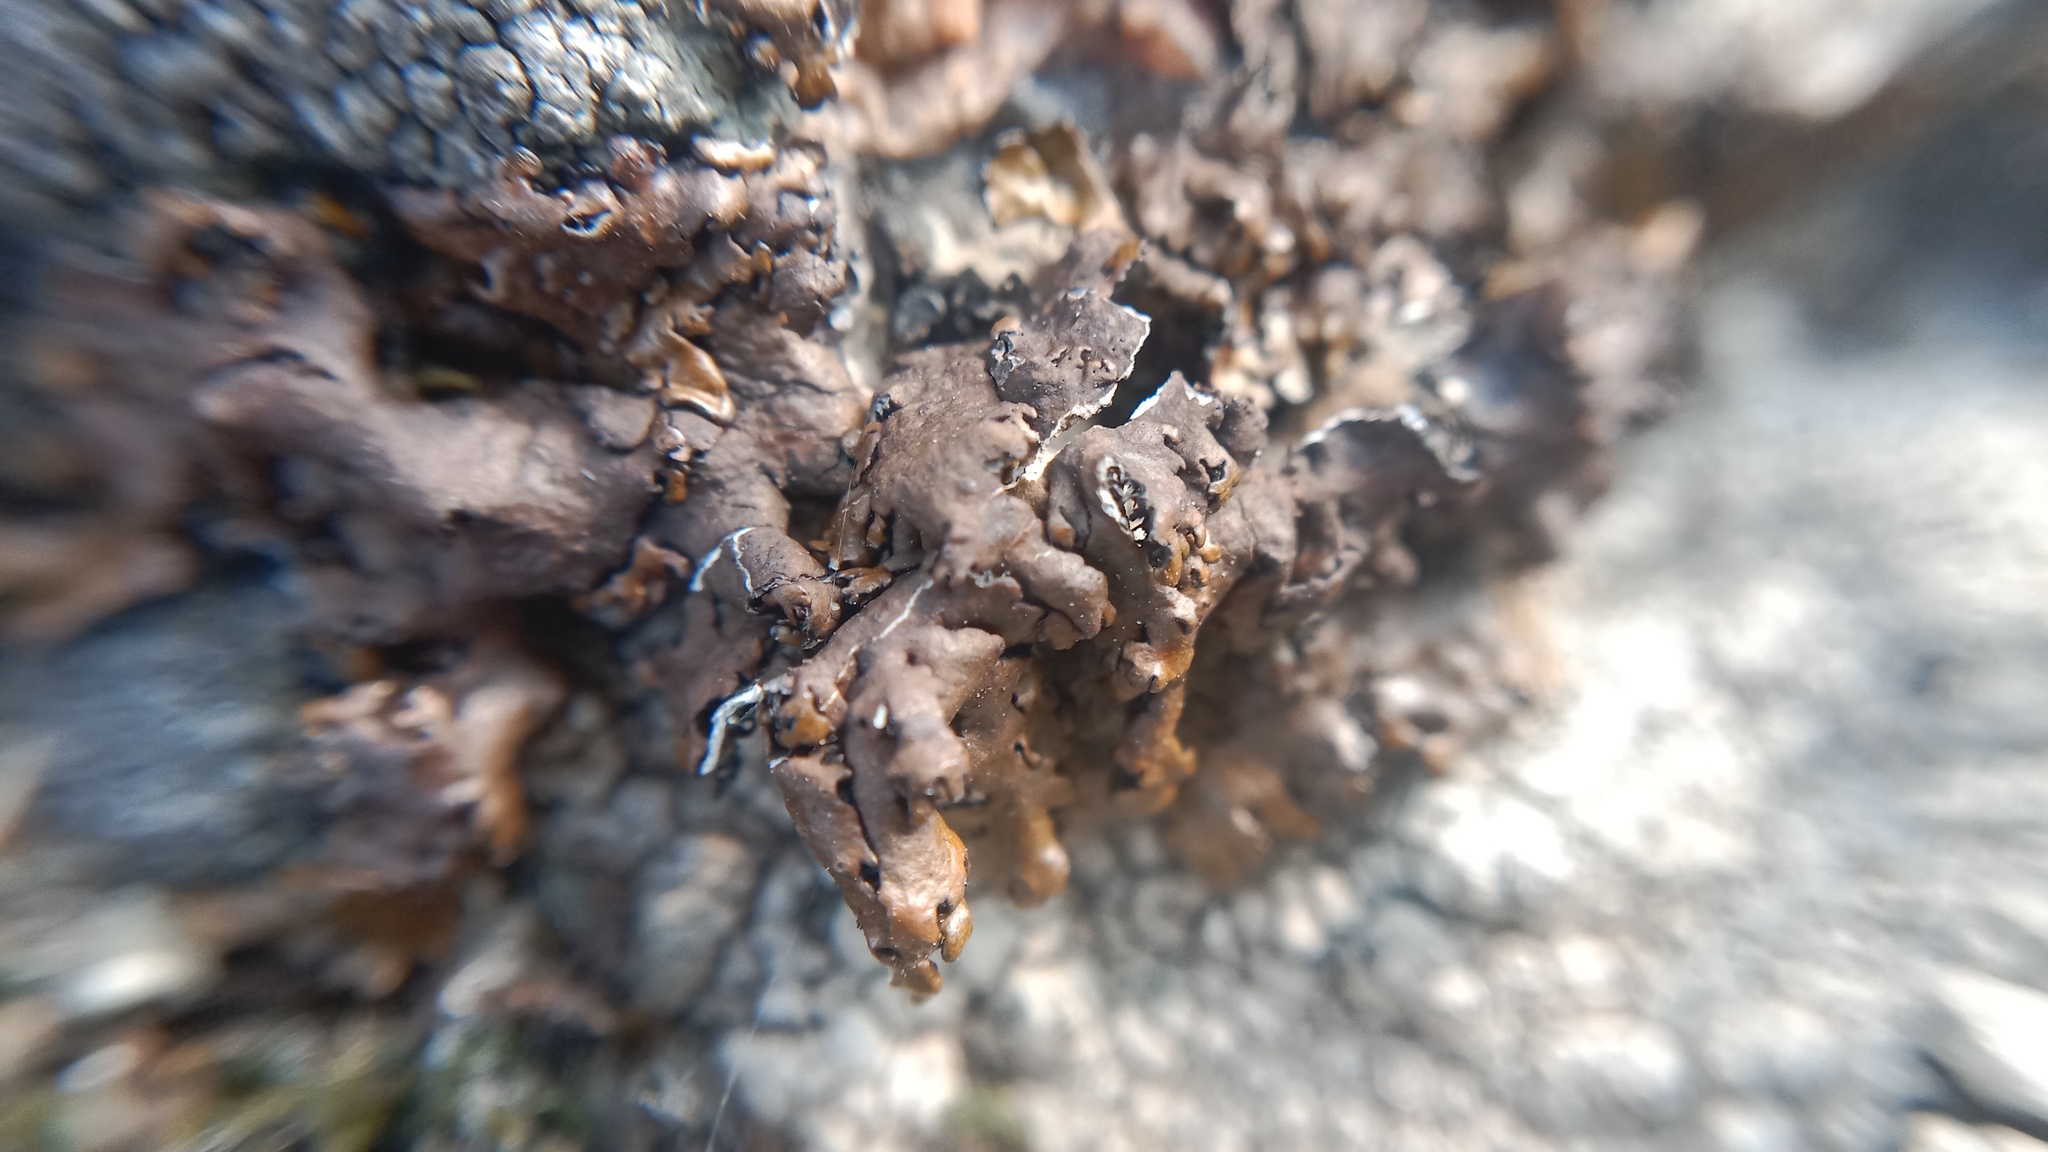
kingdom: Fungi
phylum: Ascomycota
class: Lecanoromycetes
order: Lecanorales
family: Parmeliaceae
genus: Xanthoparmelia
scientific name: Xanthoparmelia pulla
